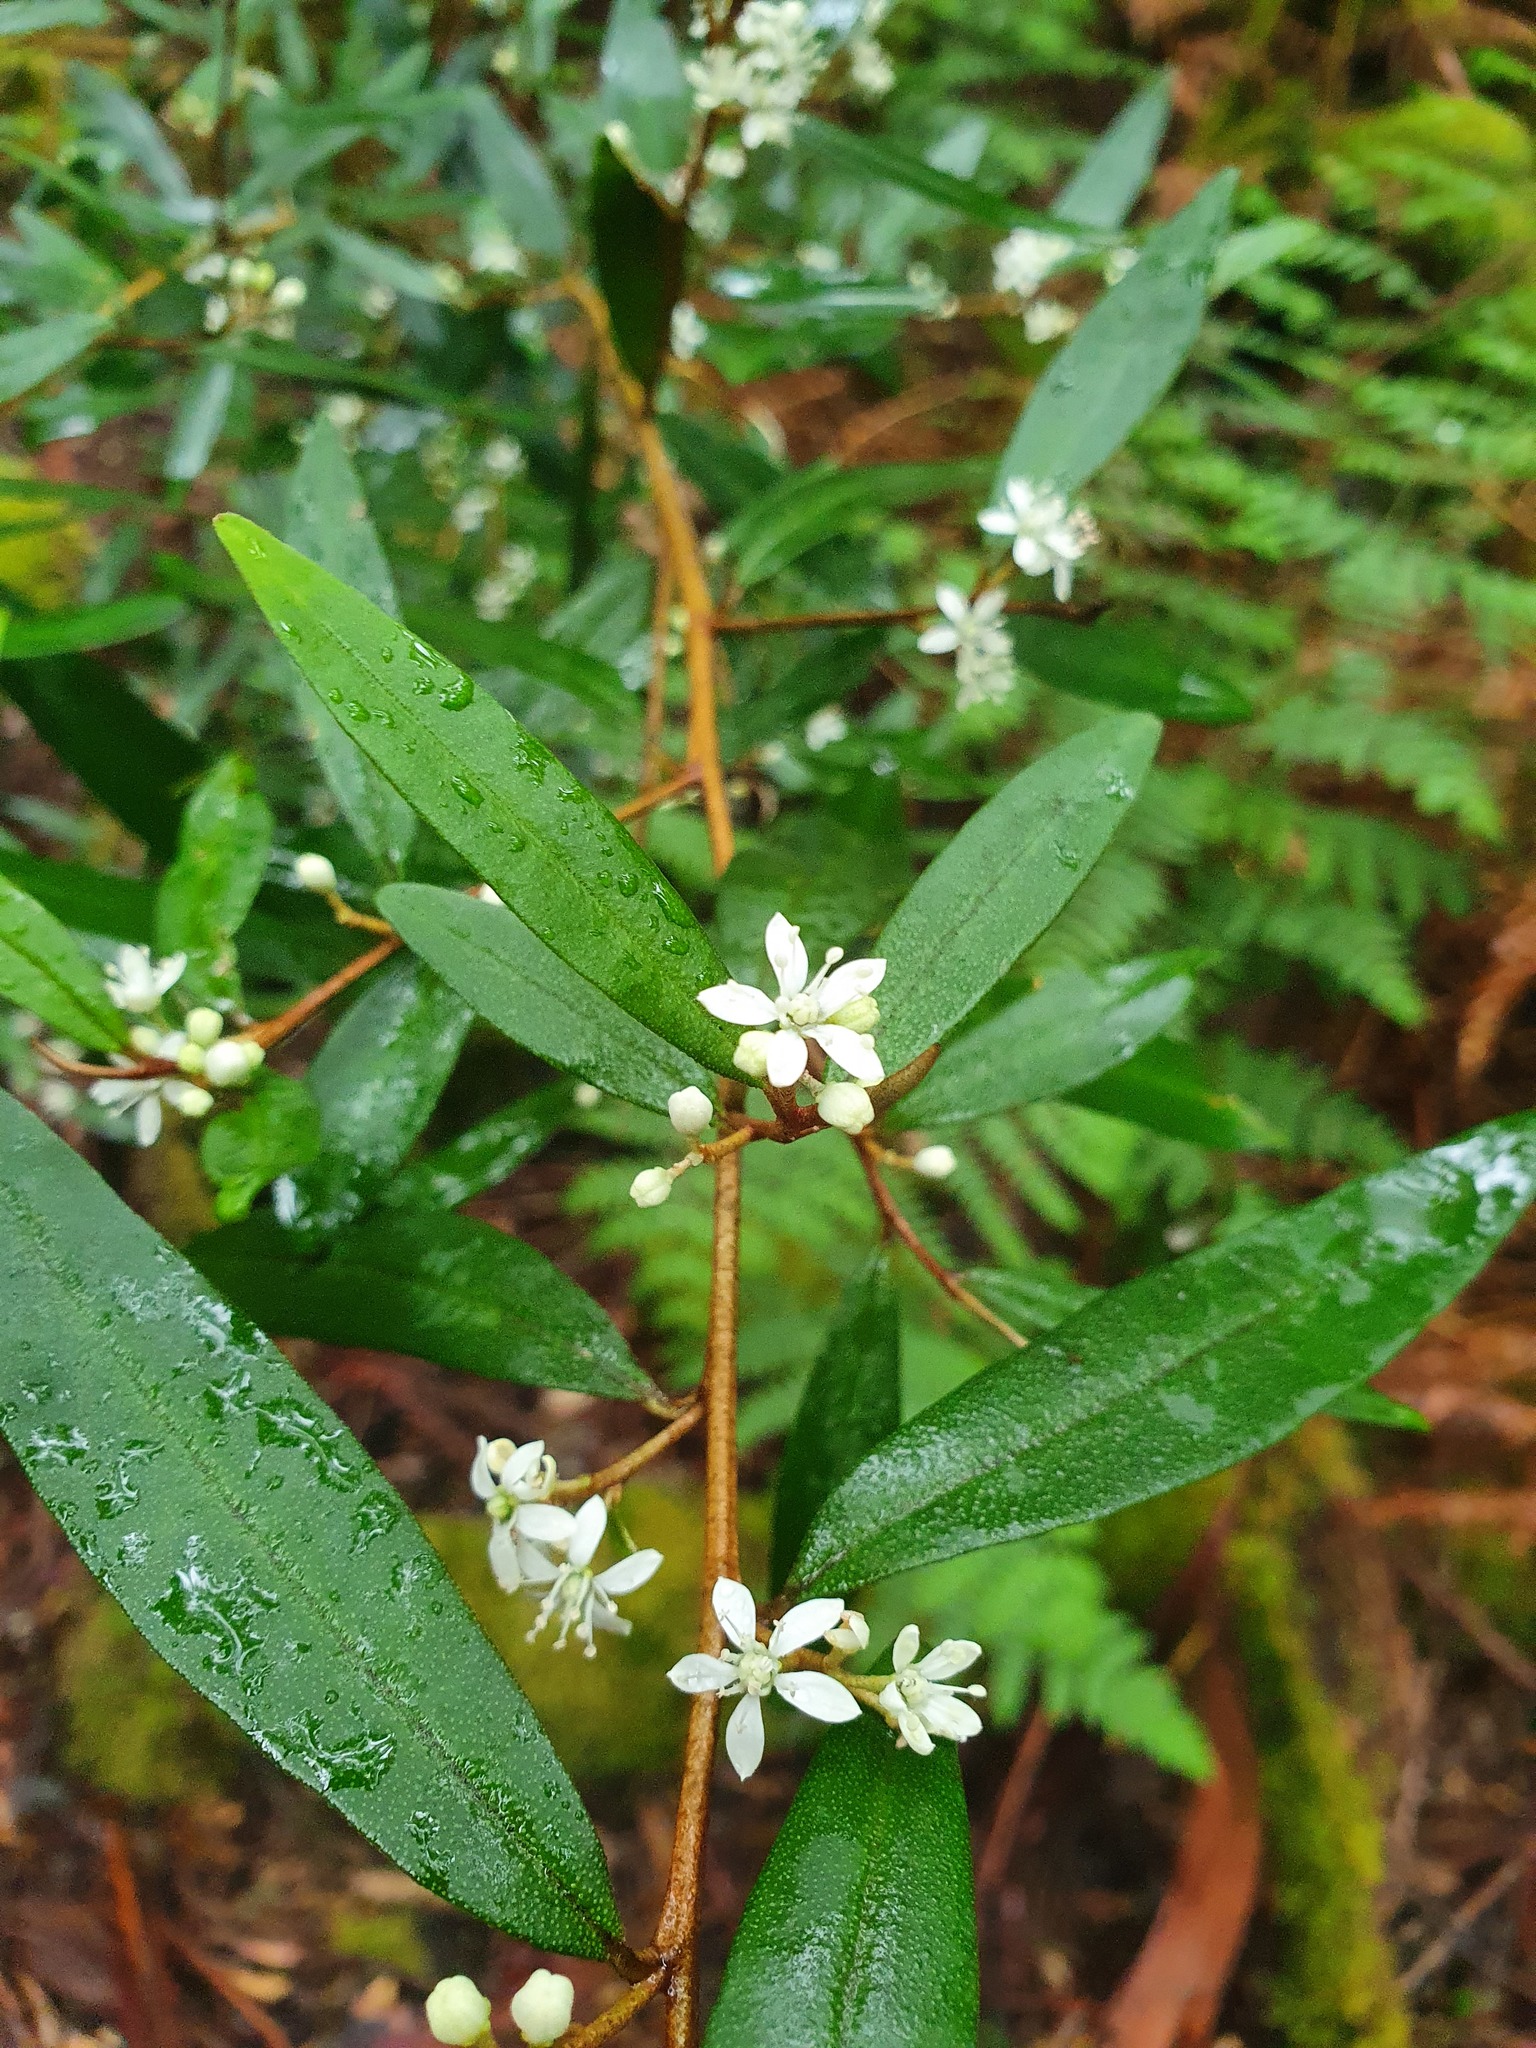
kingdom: Plantae
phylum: Tracheophyta
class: Magnoliopsida
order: Sapindales
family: Rutaceae
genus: Nematolepis
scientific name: Nematolepis squamea
